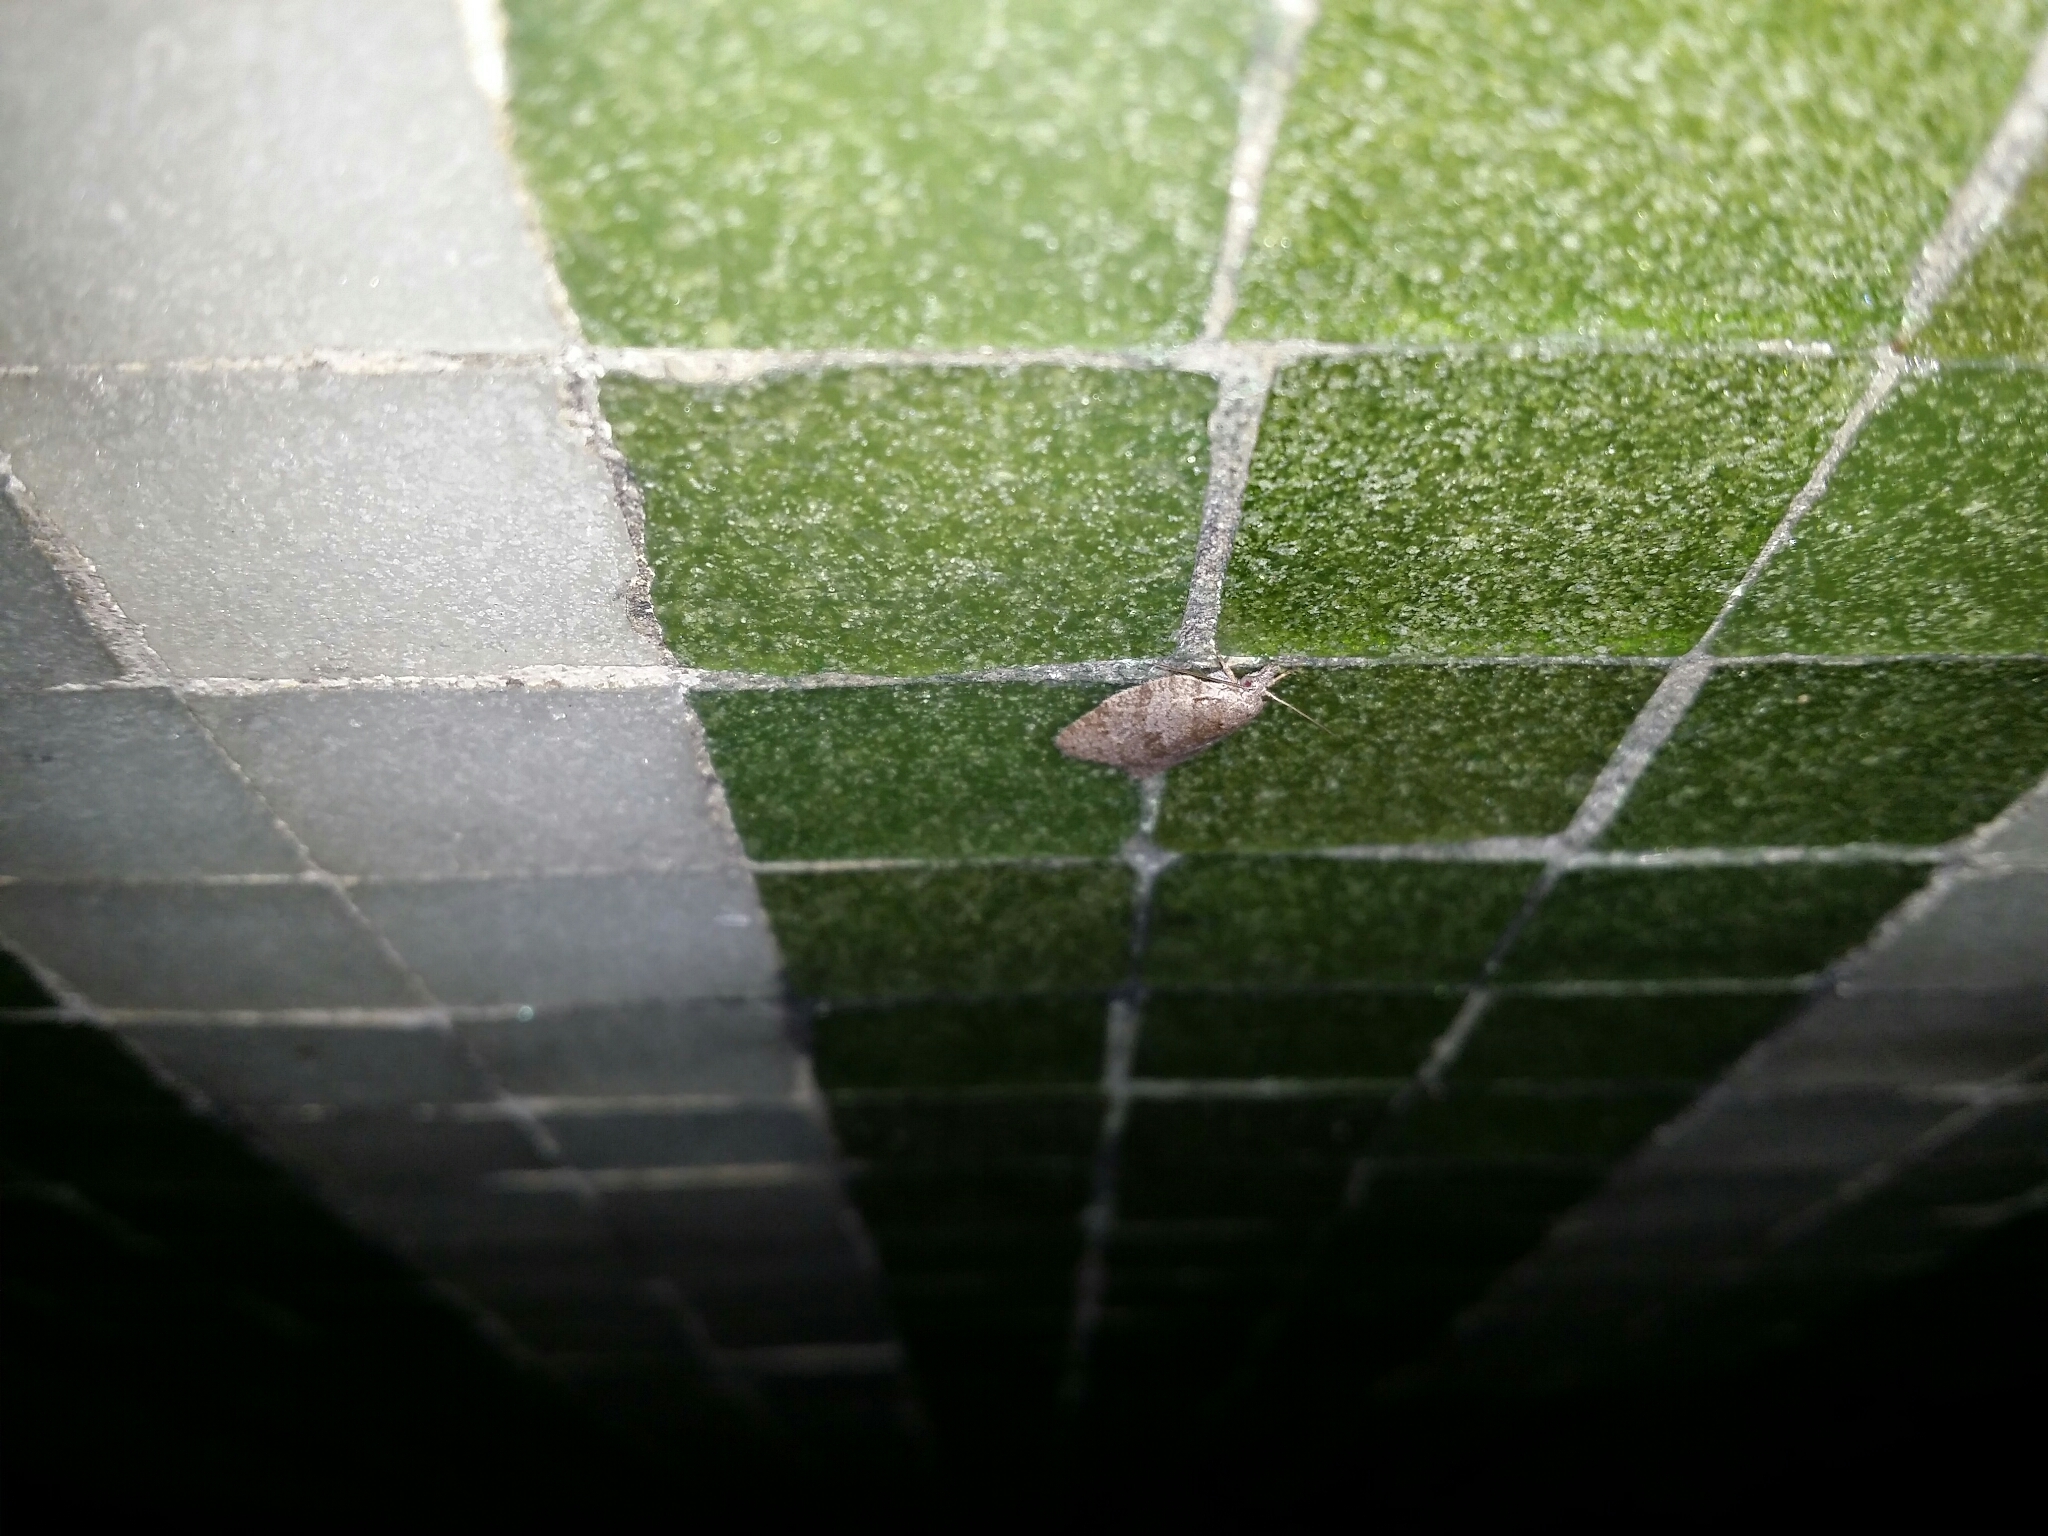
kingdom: Animalia
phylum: Arthropoda
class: Insecta
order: Lepidoptera
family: Tortricidae
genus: Isotenes
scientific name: Isotenes miserana
